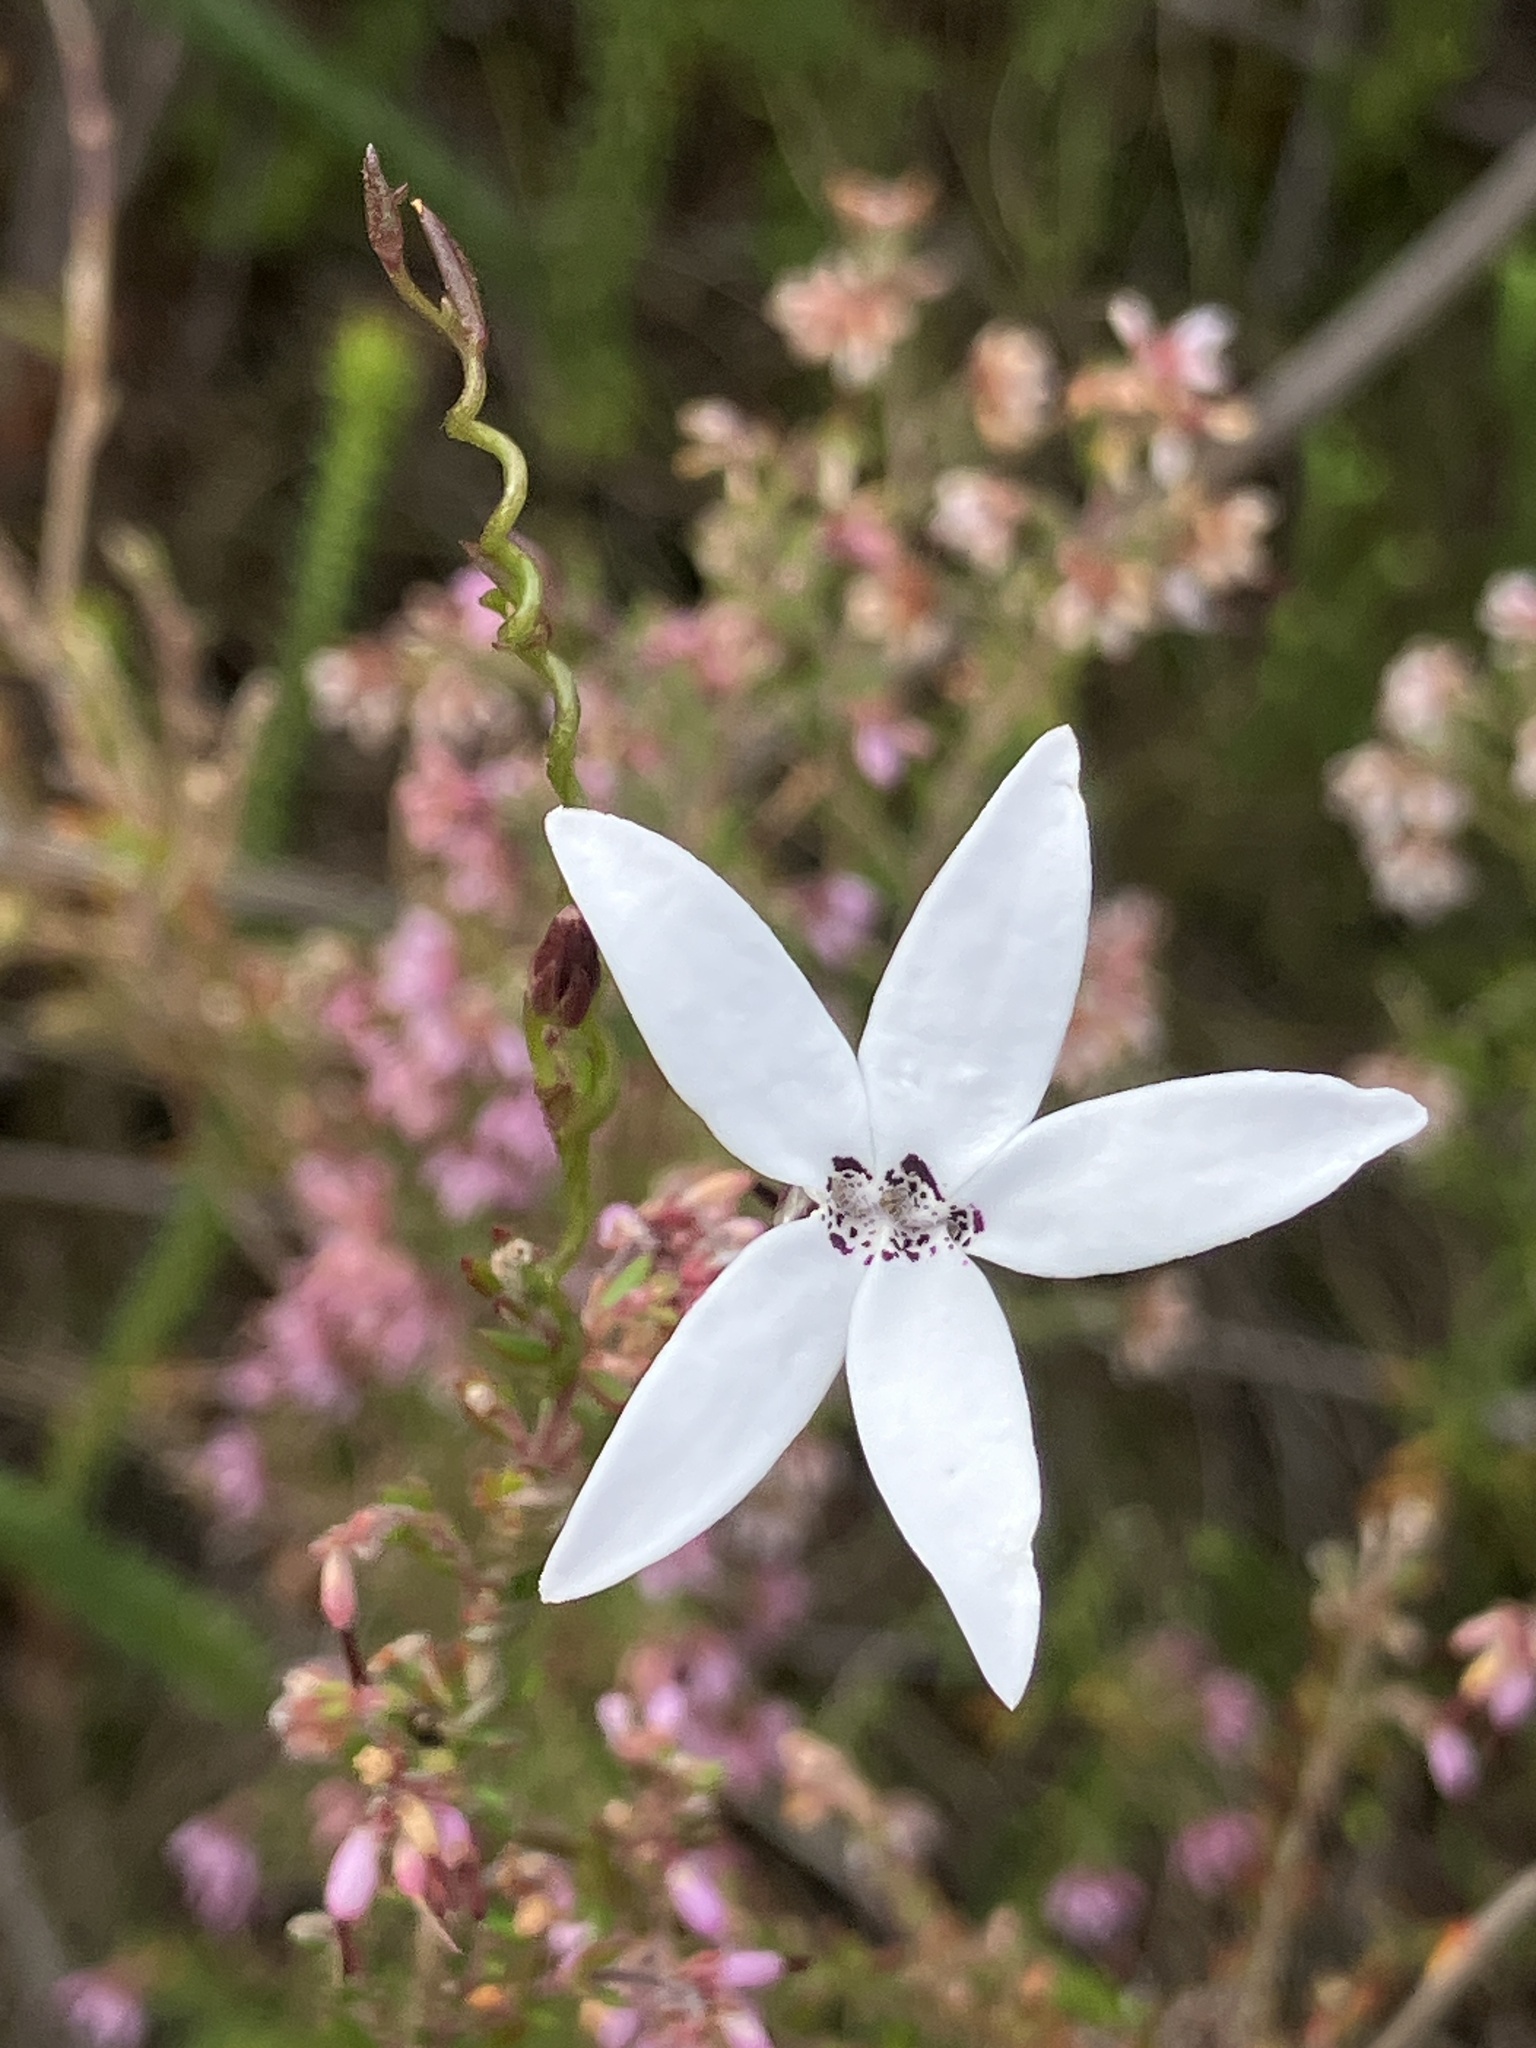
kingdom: Plantae
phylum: Tracheophyta
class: Magnoliopsida
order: Asterales
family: Campanulaceae
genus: Cyphia
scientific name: Cyphia volubilis
